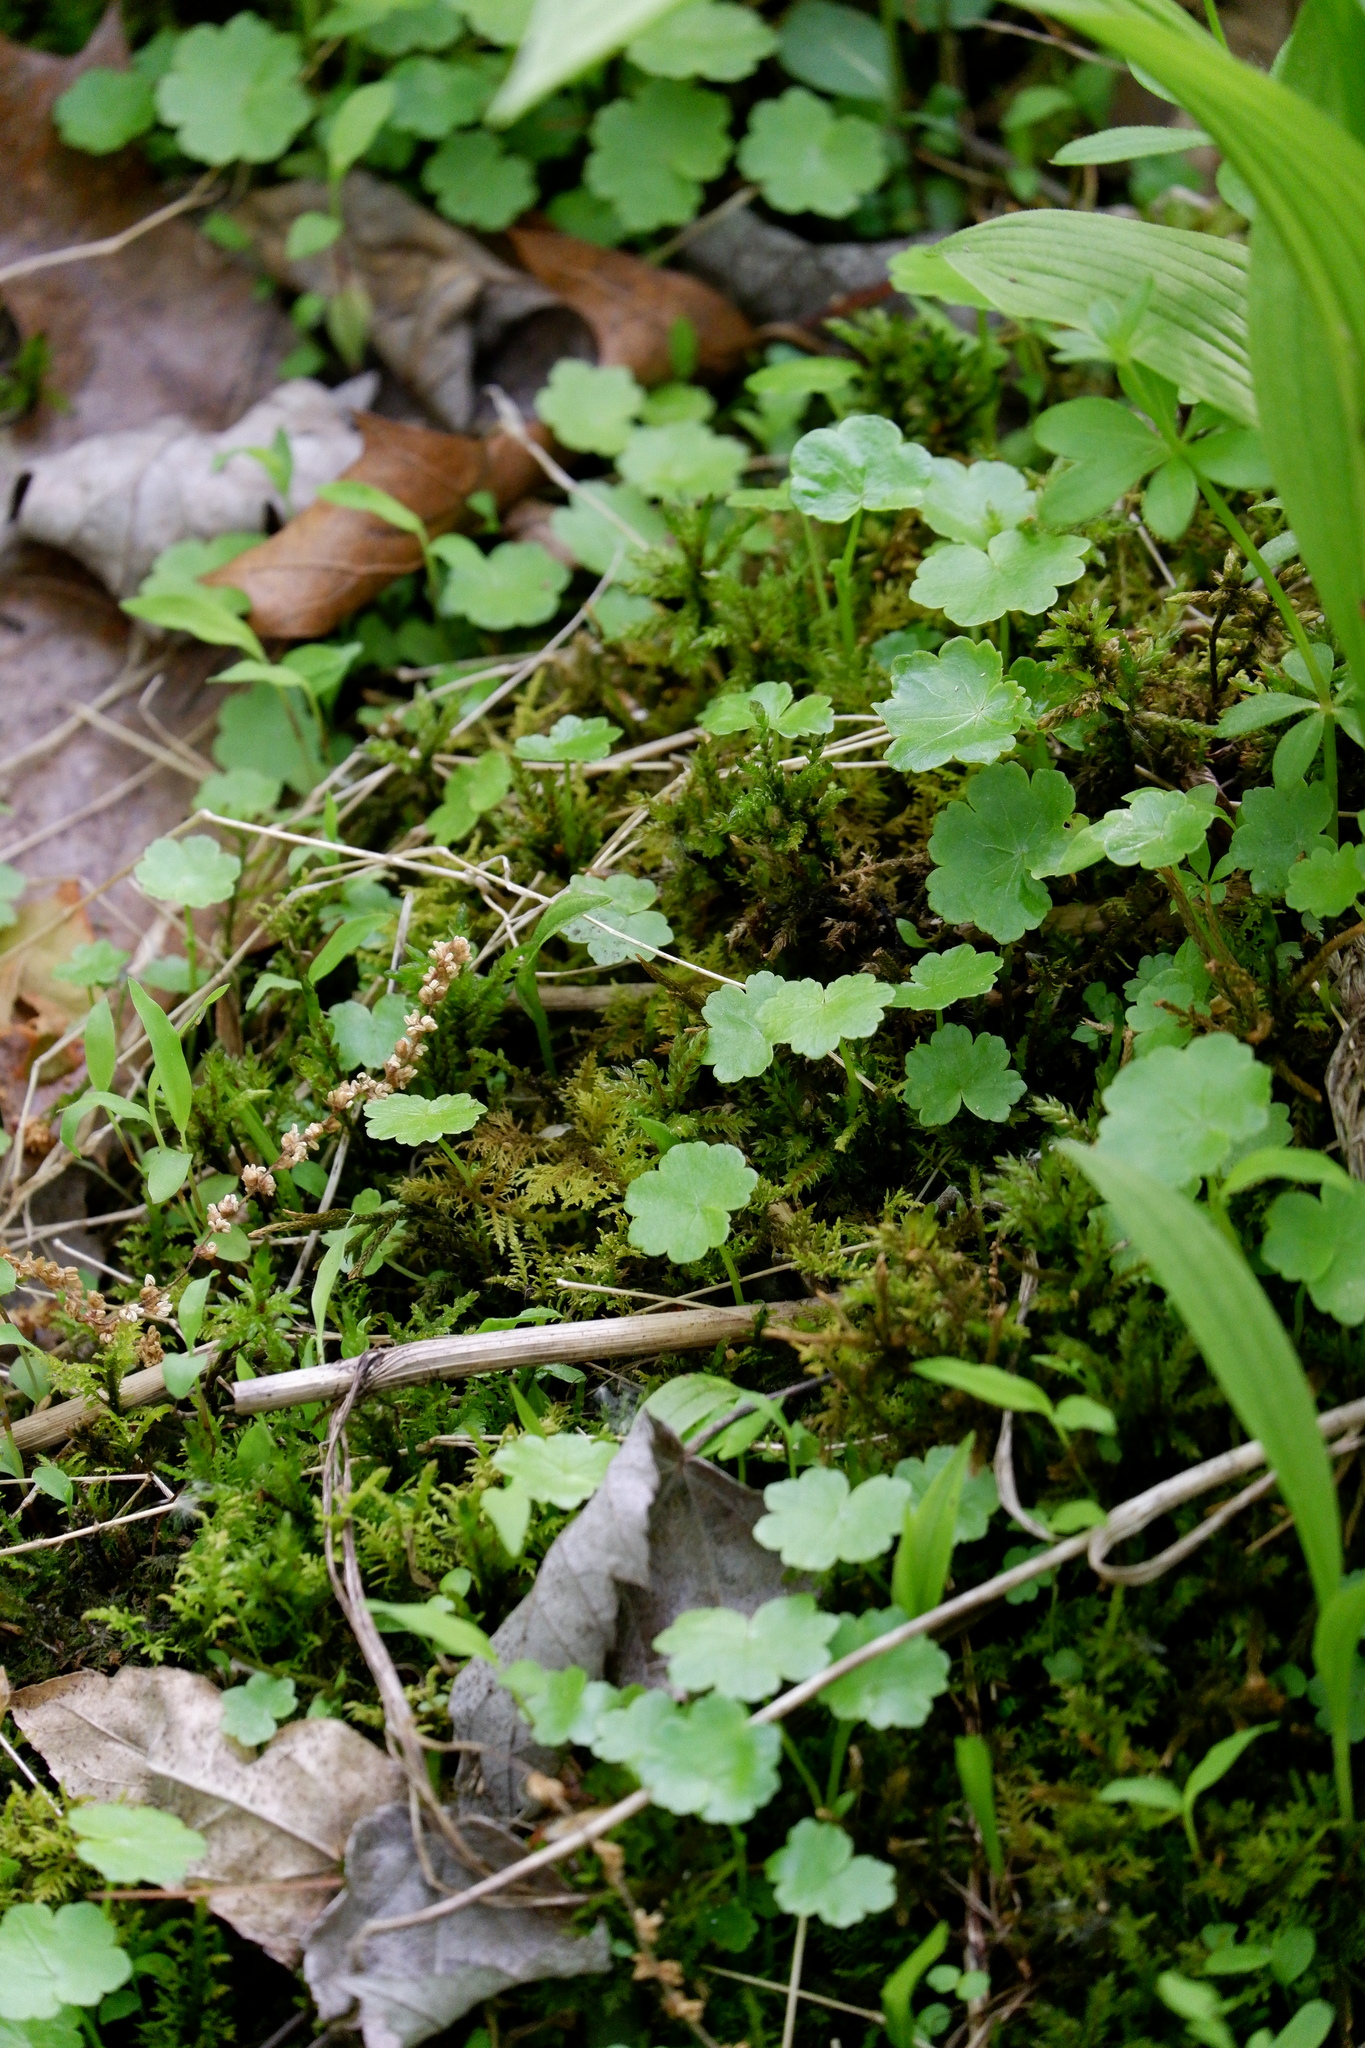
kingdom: Plantae
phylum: Tracheophyta
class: Magnoliopsida
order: Apiales
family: Araliaceae
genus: Hydrocotyle
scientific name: Hydrocotyle americana
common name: American water-pennywort
